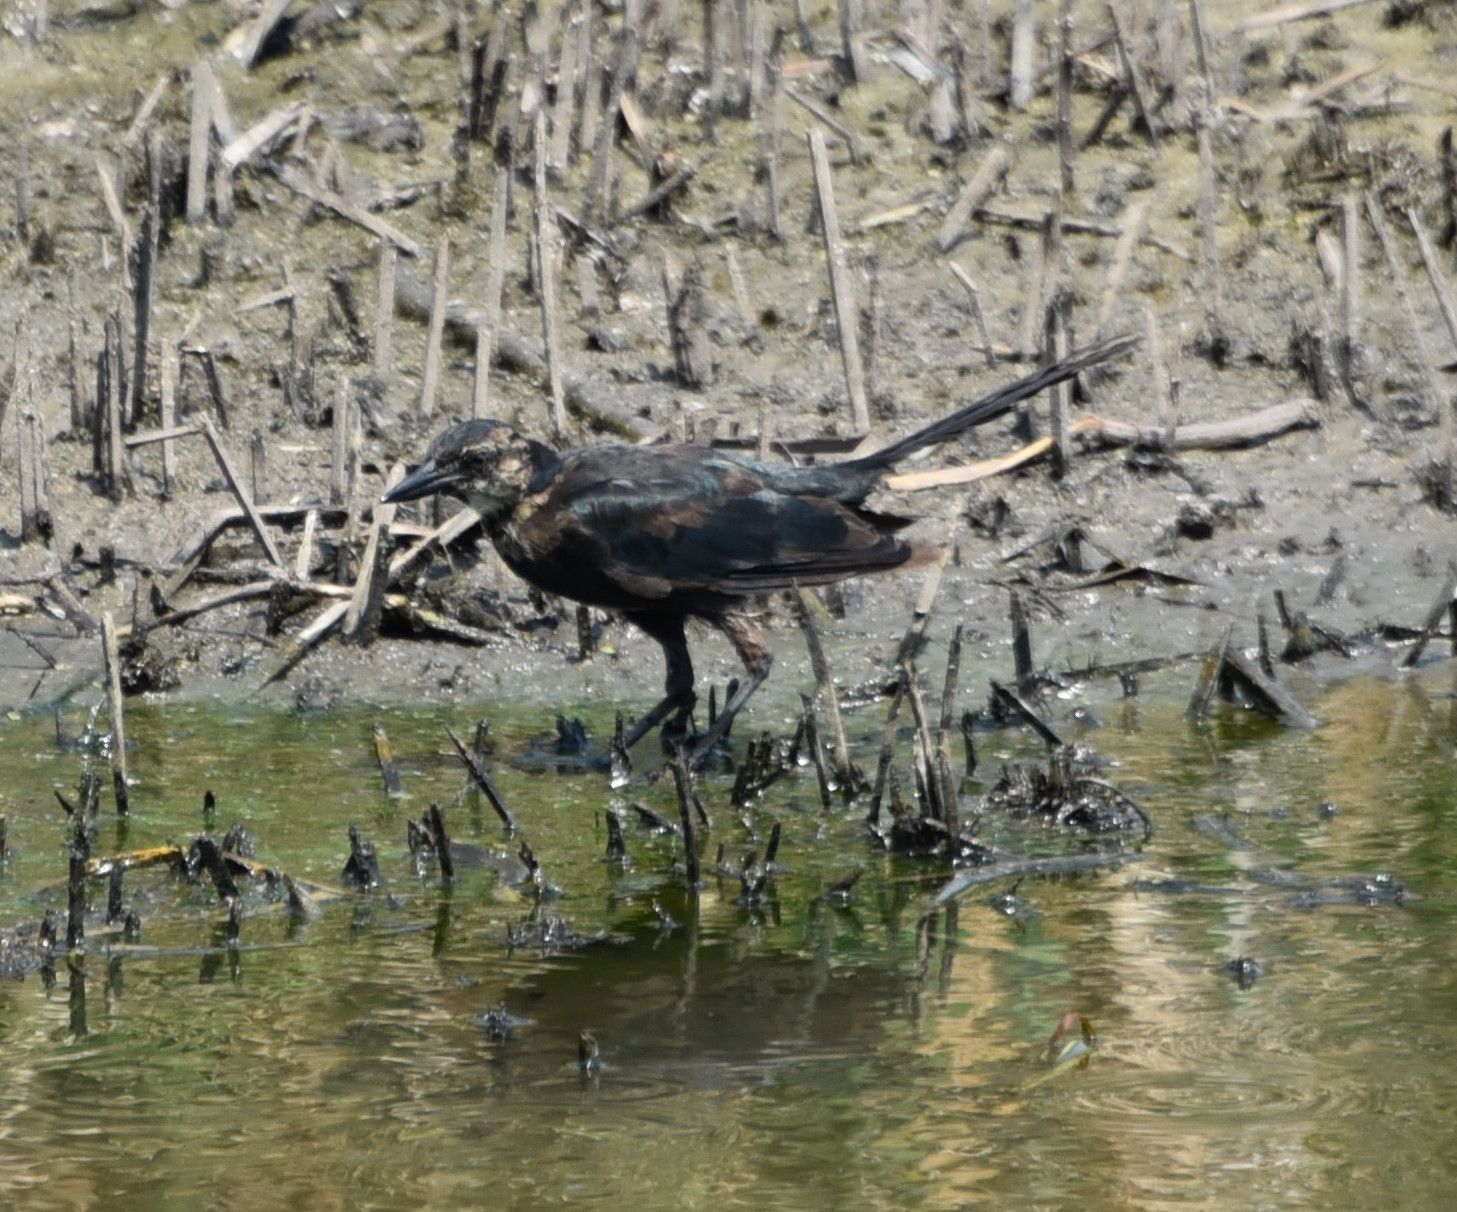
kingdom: Animalia
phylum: Chordata
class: Aves
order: Passeriformes
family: Icteridae
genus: Quiscalus
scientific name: Quiscalus major
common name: Boat-tailed grackle
